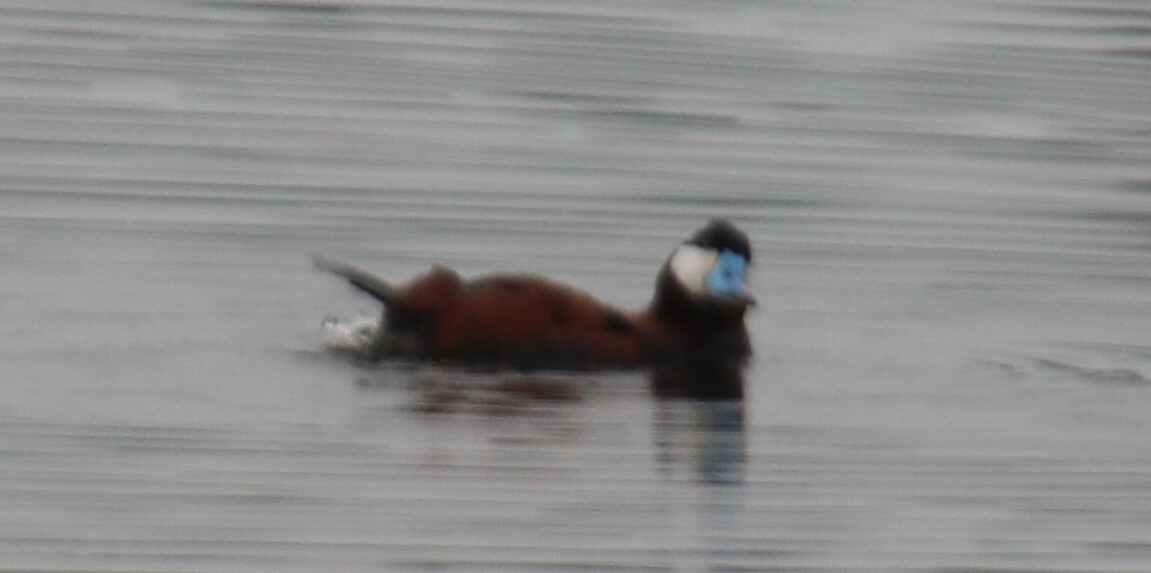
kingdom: Animalia
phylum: Chordata
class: Aves
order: Anseriformes
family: Anatidae
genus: Oxyura
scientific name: Oxyura jamaicensis
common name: Ruddy duck
